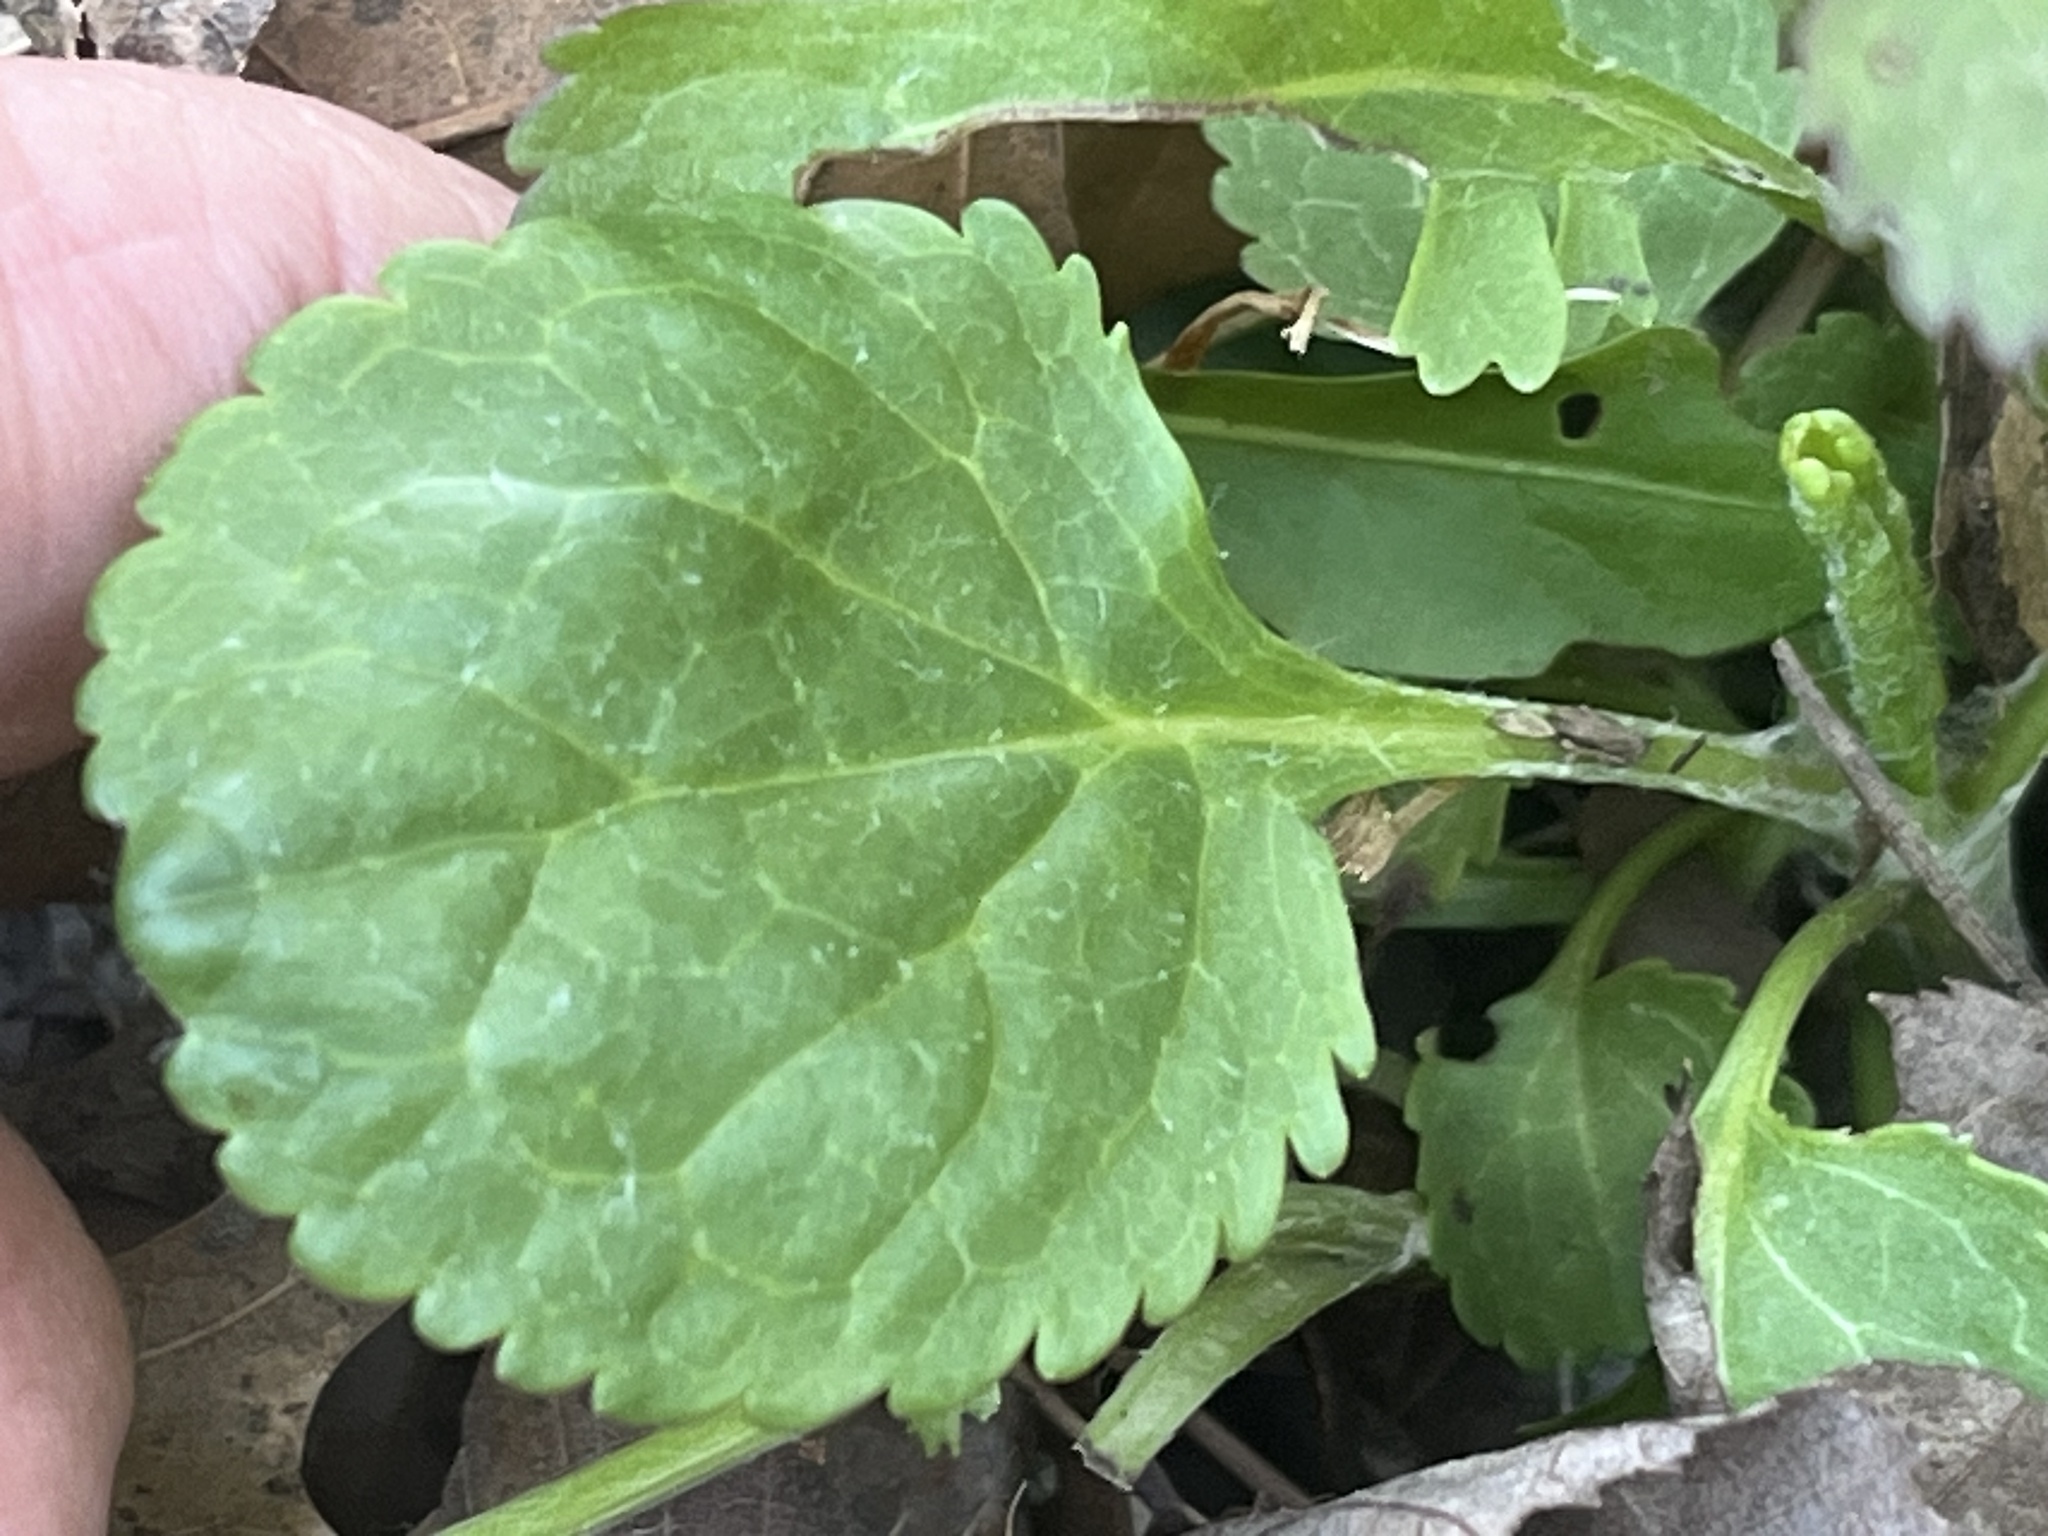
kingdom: Plantae
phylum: Tracheophyta
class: Magnoliopsida
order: Asterales
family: Asteraceae
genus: Packera
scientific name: Packera plattensis
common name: Prairie groundsel
